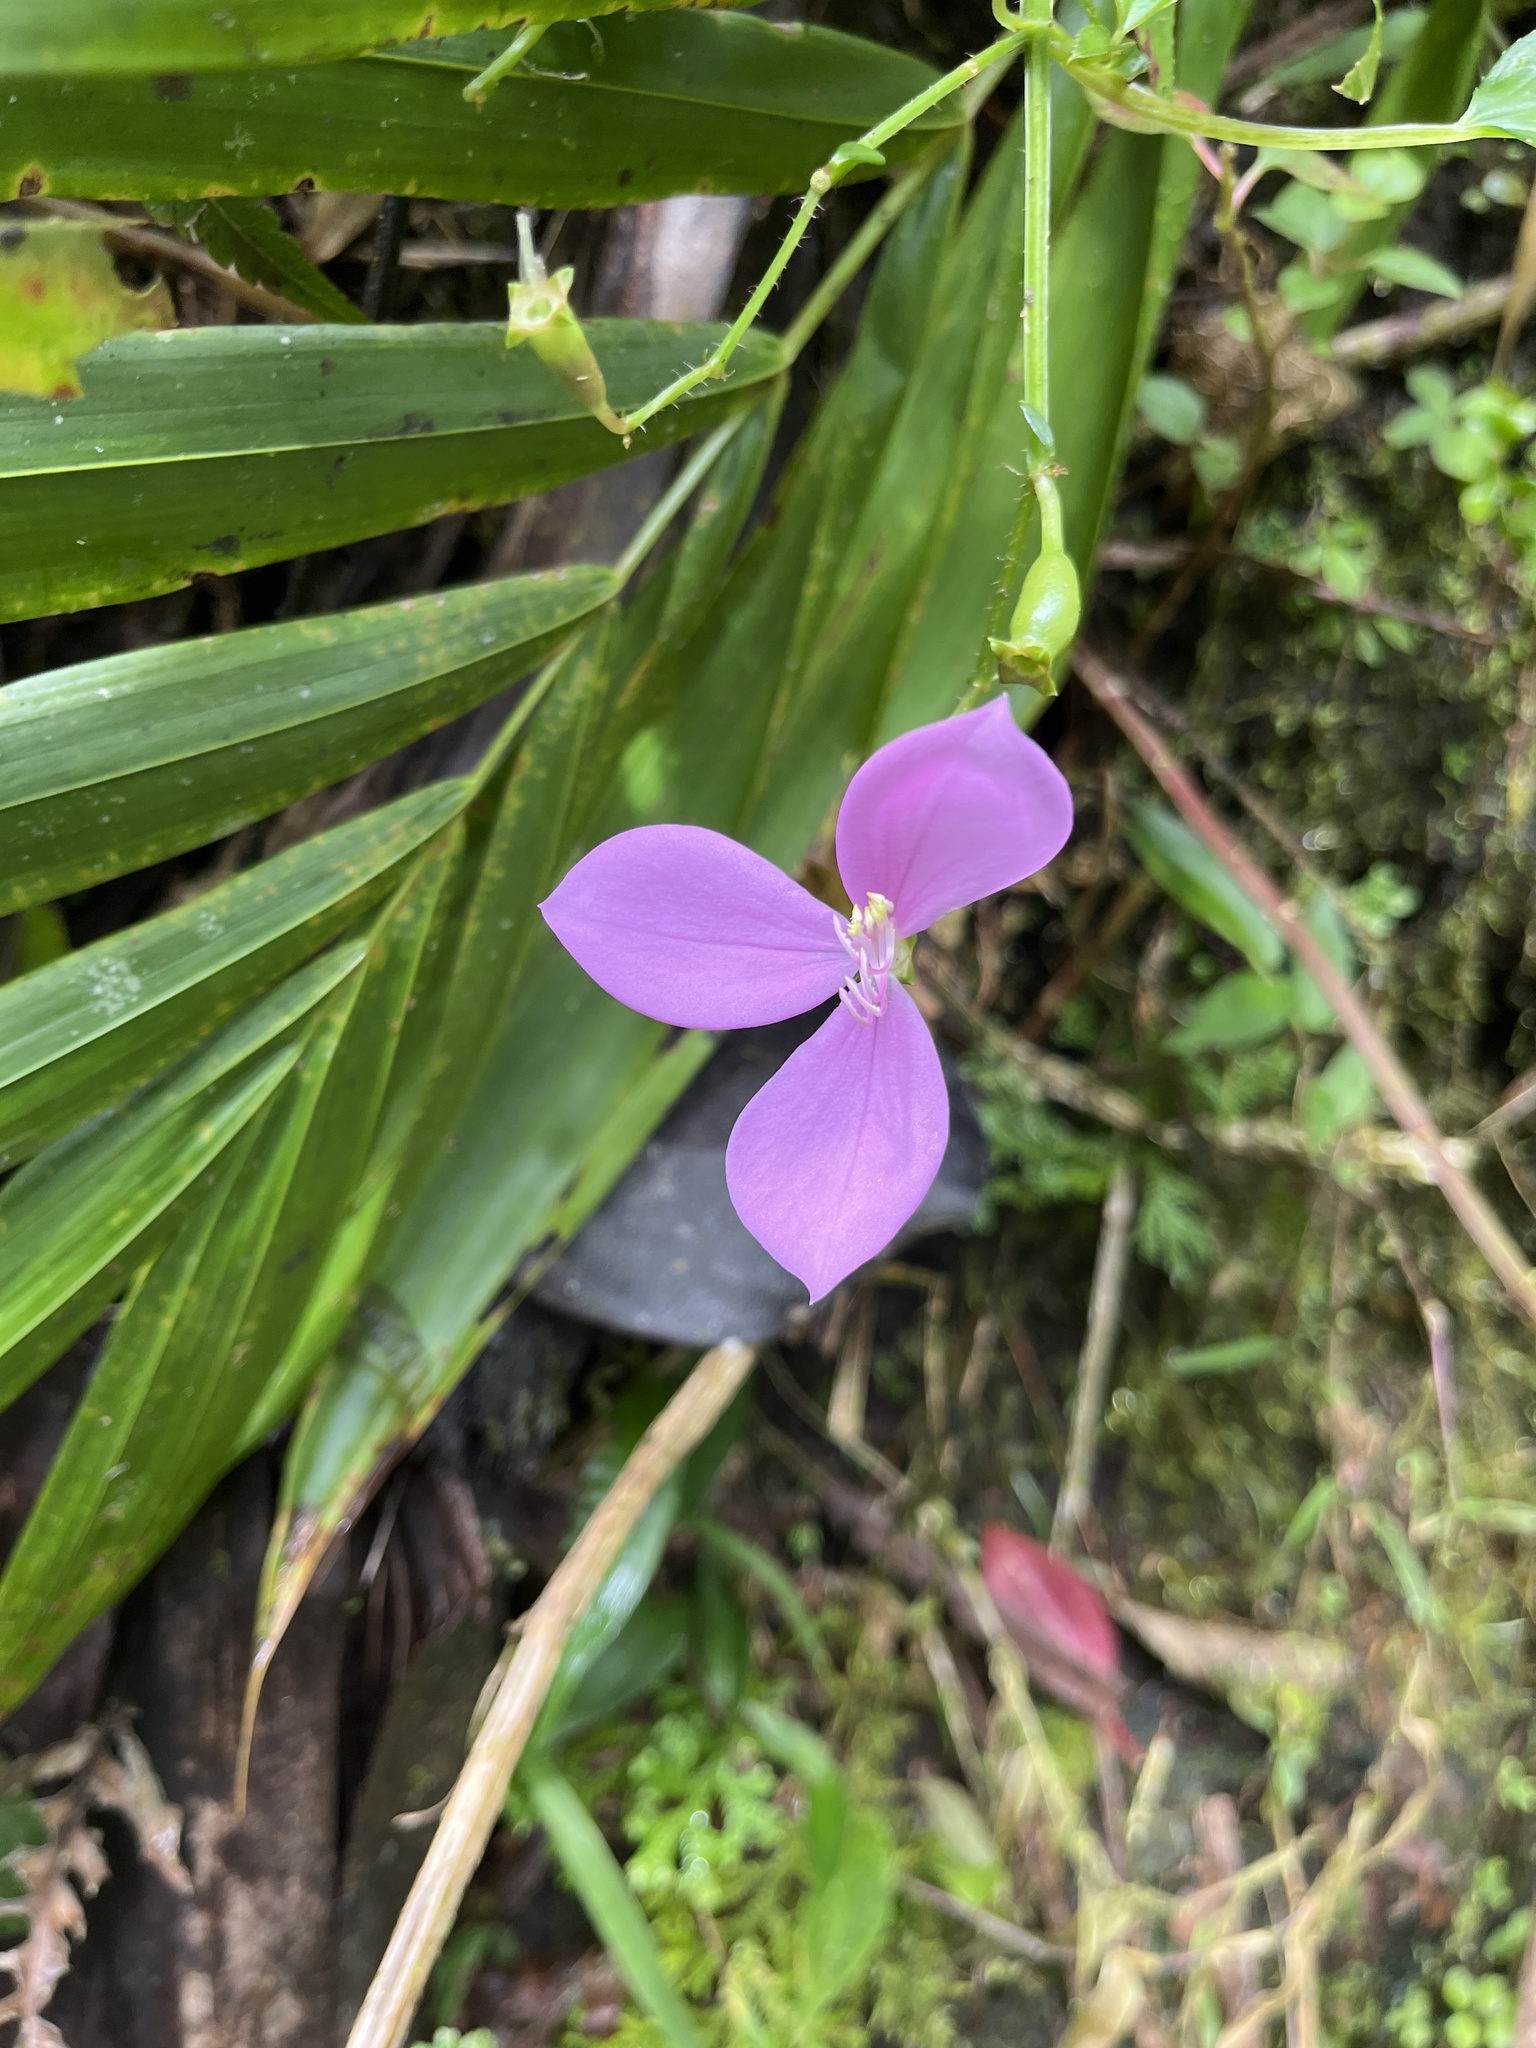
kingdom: Plantae
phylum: Tracheophyta
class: Magnoliopsida
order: Myrtales
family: Melastomataceae
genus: Arthrostemma
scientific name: Arthrostemma ciliatum
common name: Everblooming eavender
